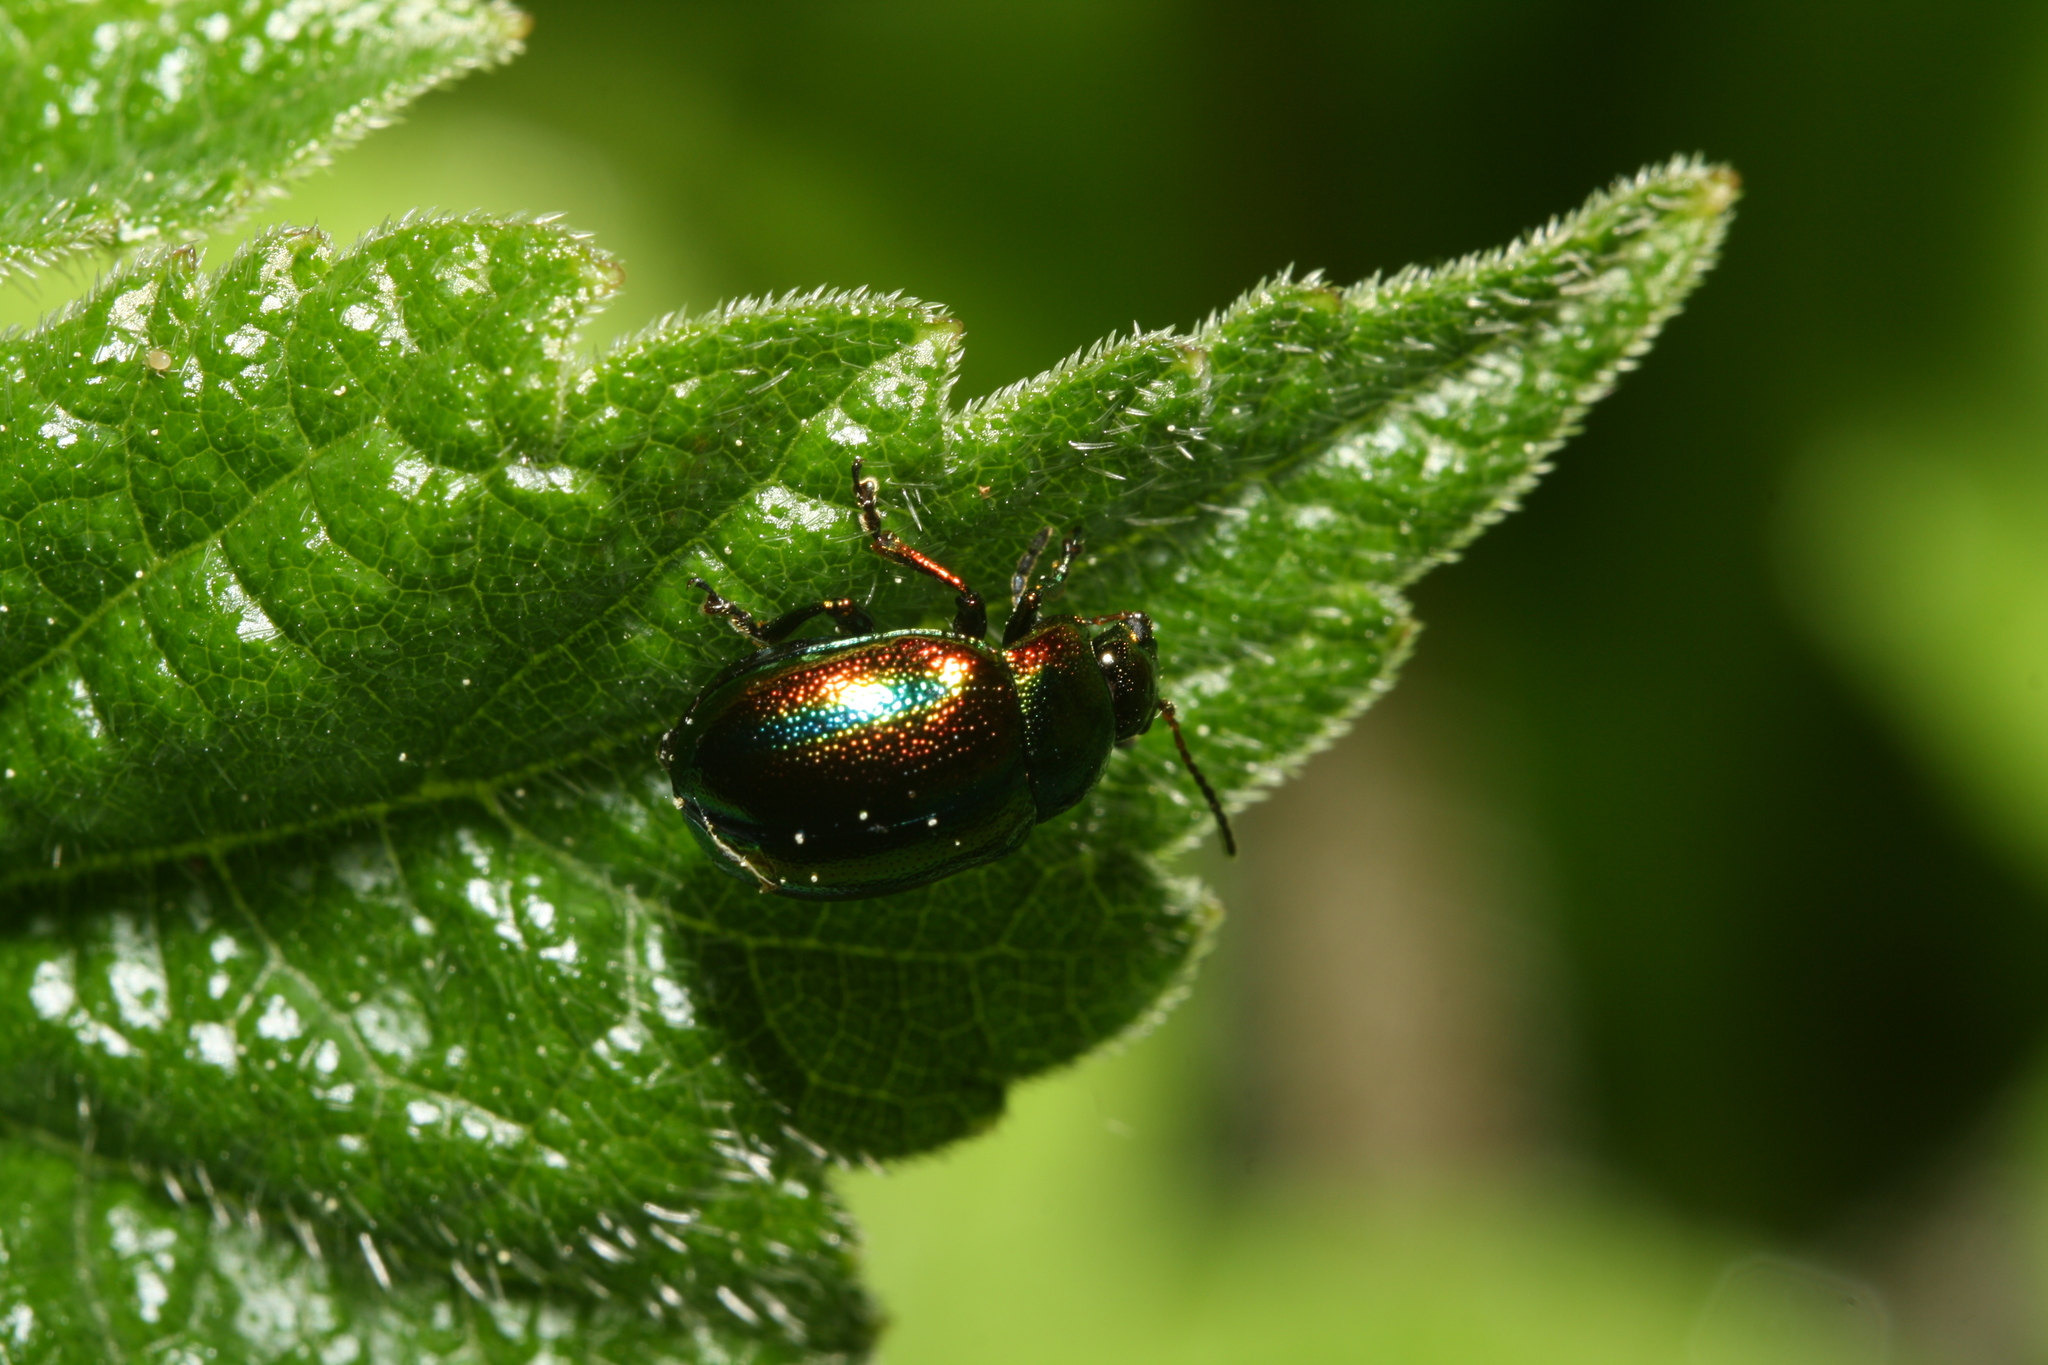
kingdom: Animalia
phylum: Arthropoda
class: Insecta
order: Coleoptera
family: Chrysomelidae
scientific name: Chrysomelidae
